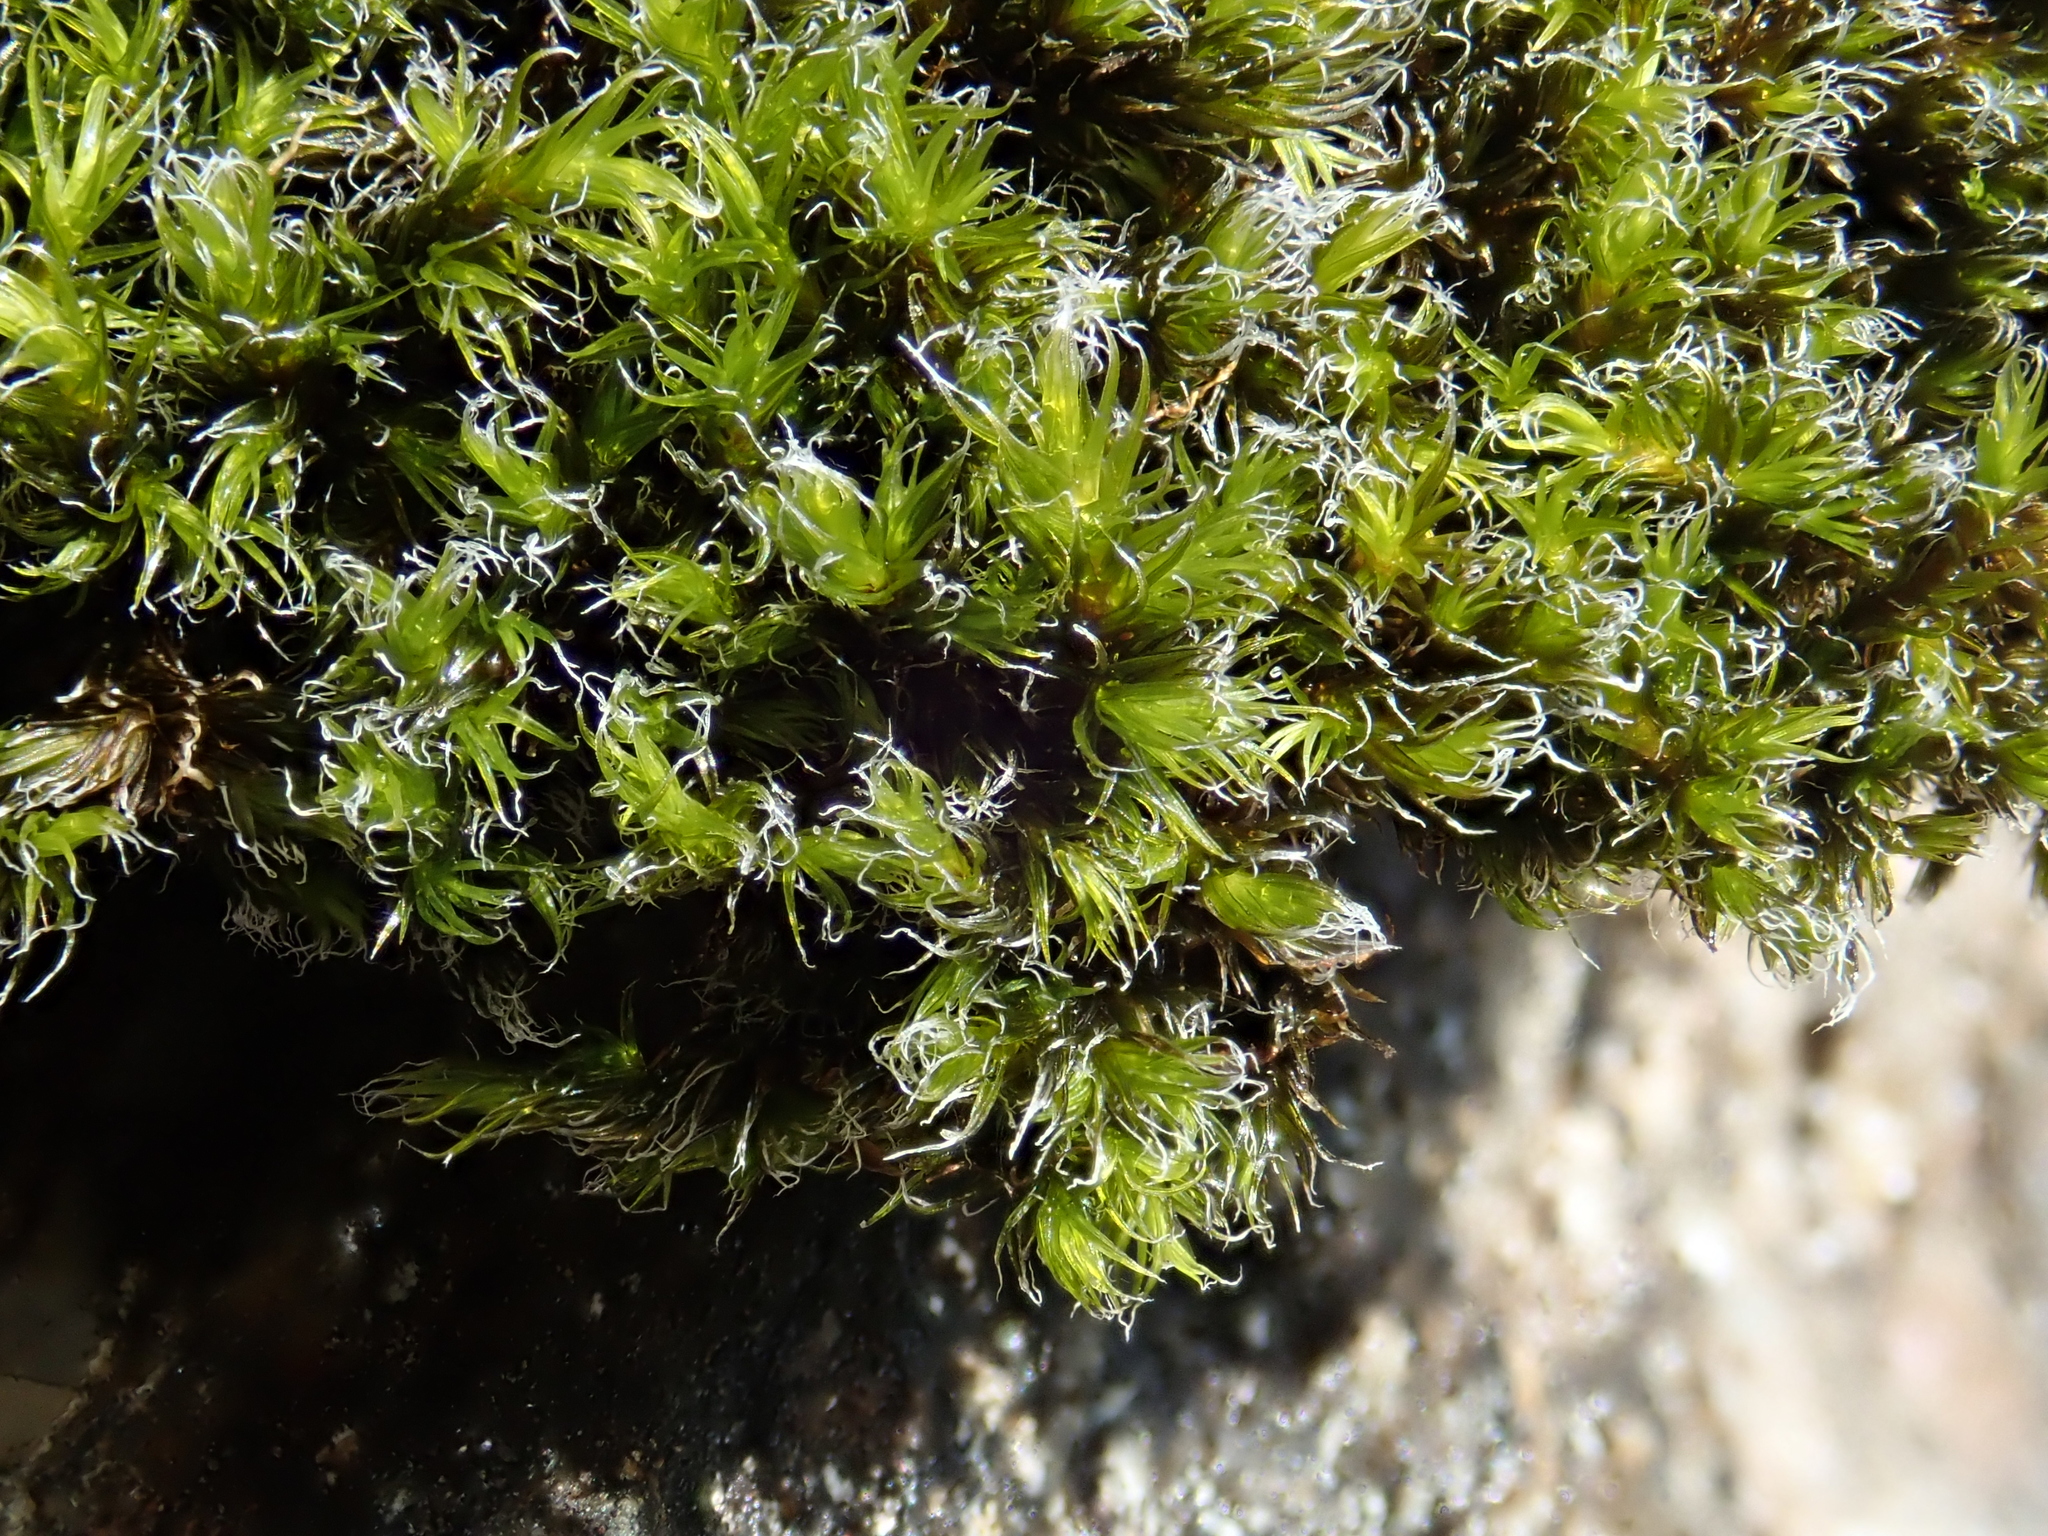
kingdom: Plantae
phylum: Bryophyta
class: Bryopsida
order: Grimmiales
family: Grimmiaceae
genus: Racomitrium
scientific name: Racomitrium lanuginosum
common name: Hoary rock moss
